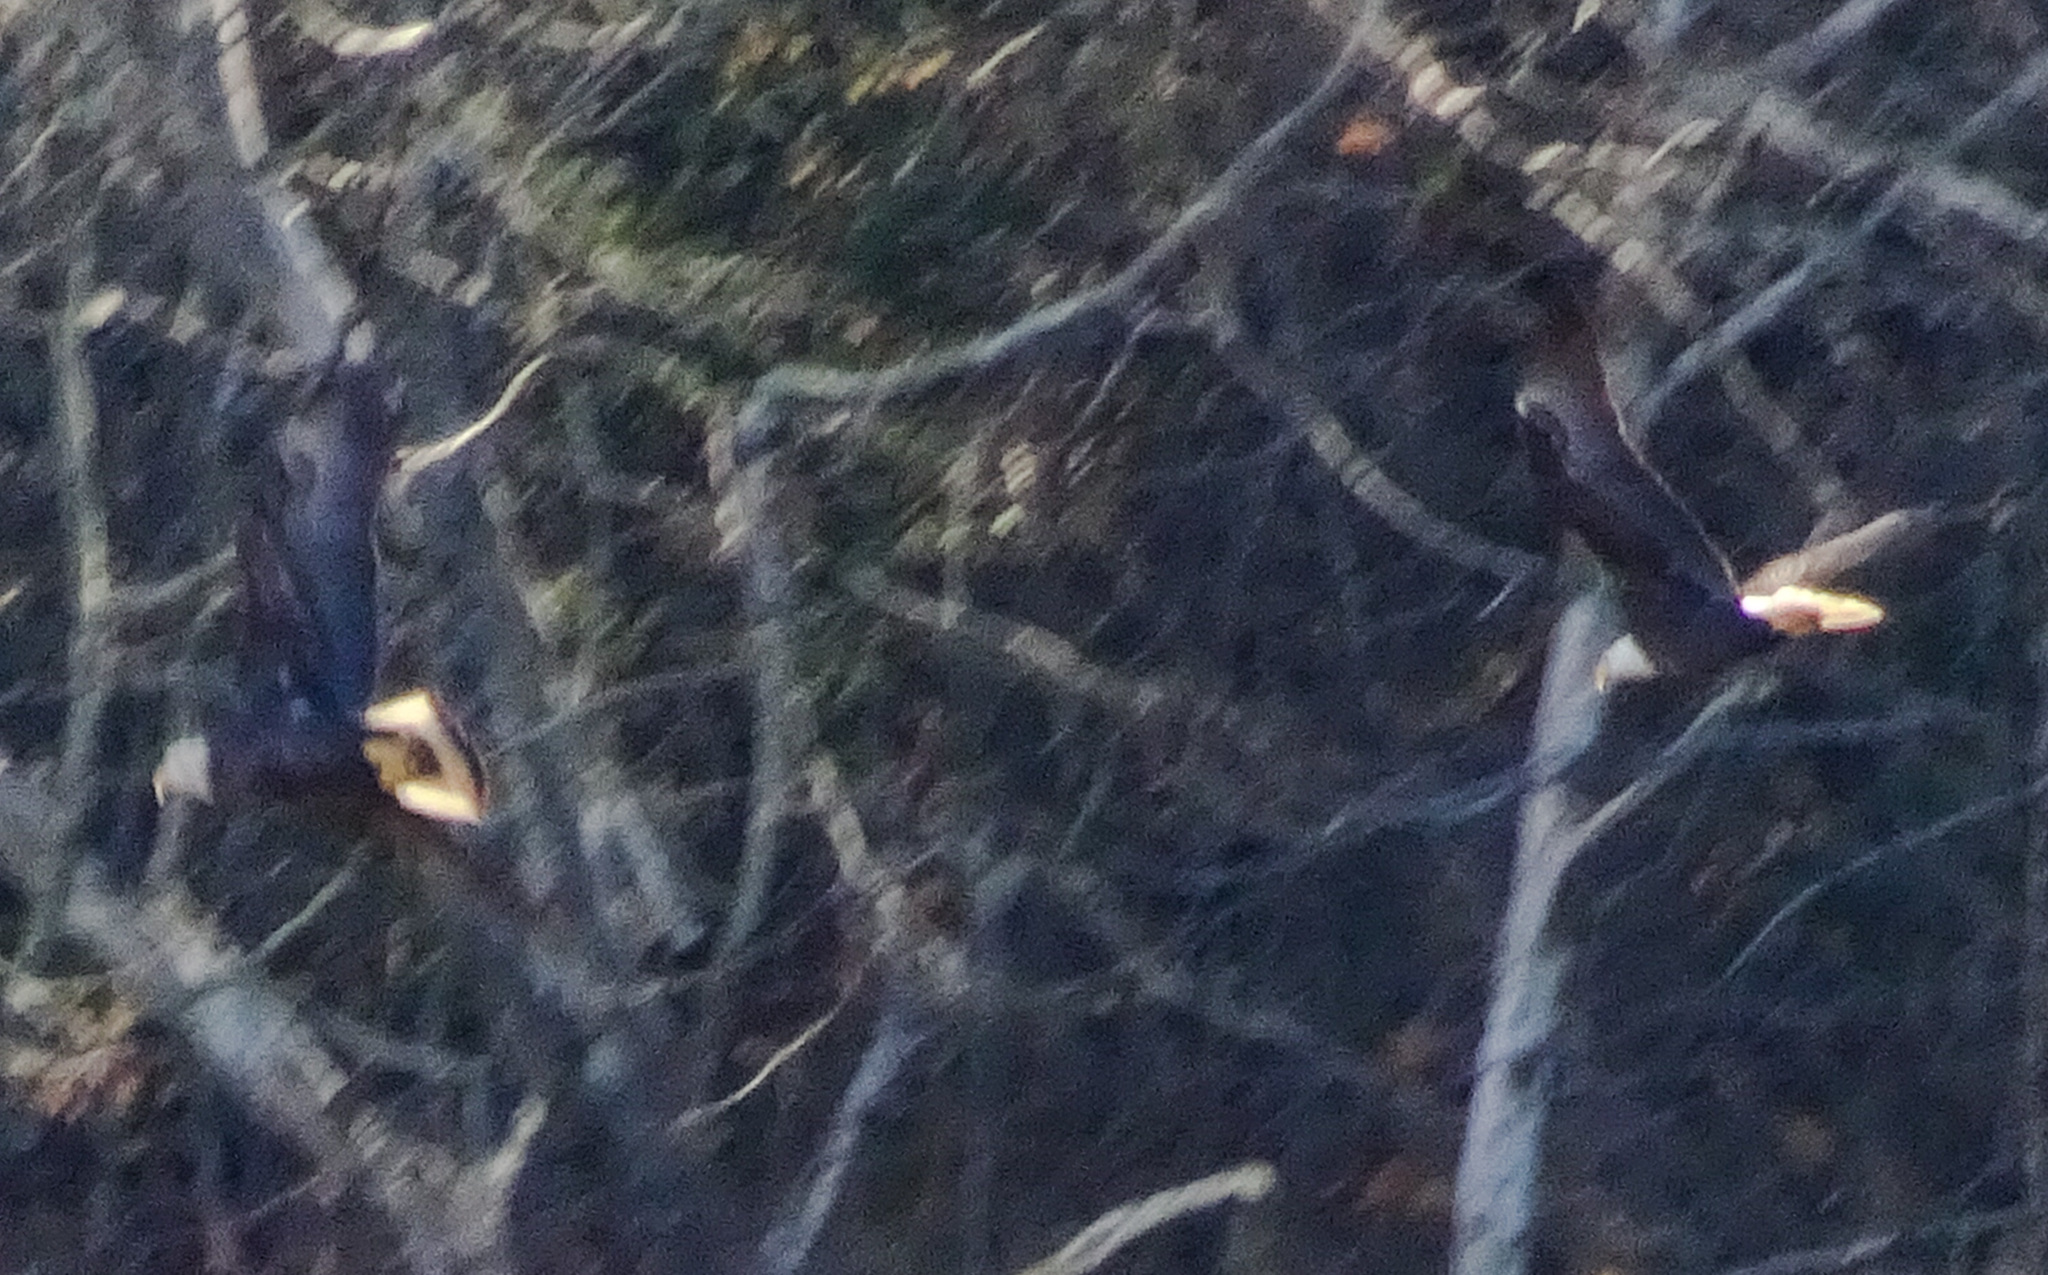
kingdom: Animalia
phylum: Chordata
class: Aves
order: Accipitriformes
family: Accipitridae
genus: Haliaeetus
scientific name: Haliaeetus leucocephalus
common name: Bald eagle
